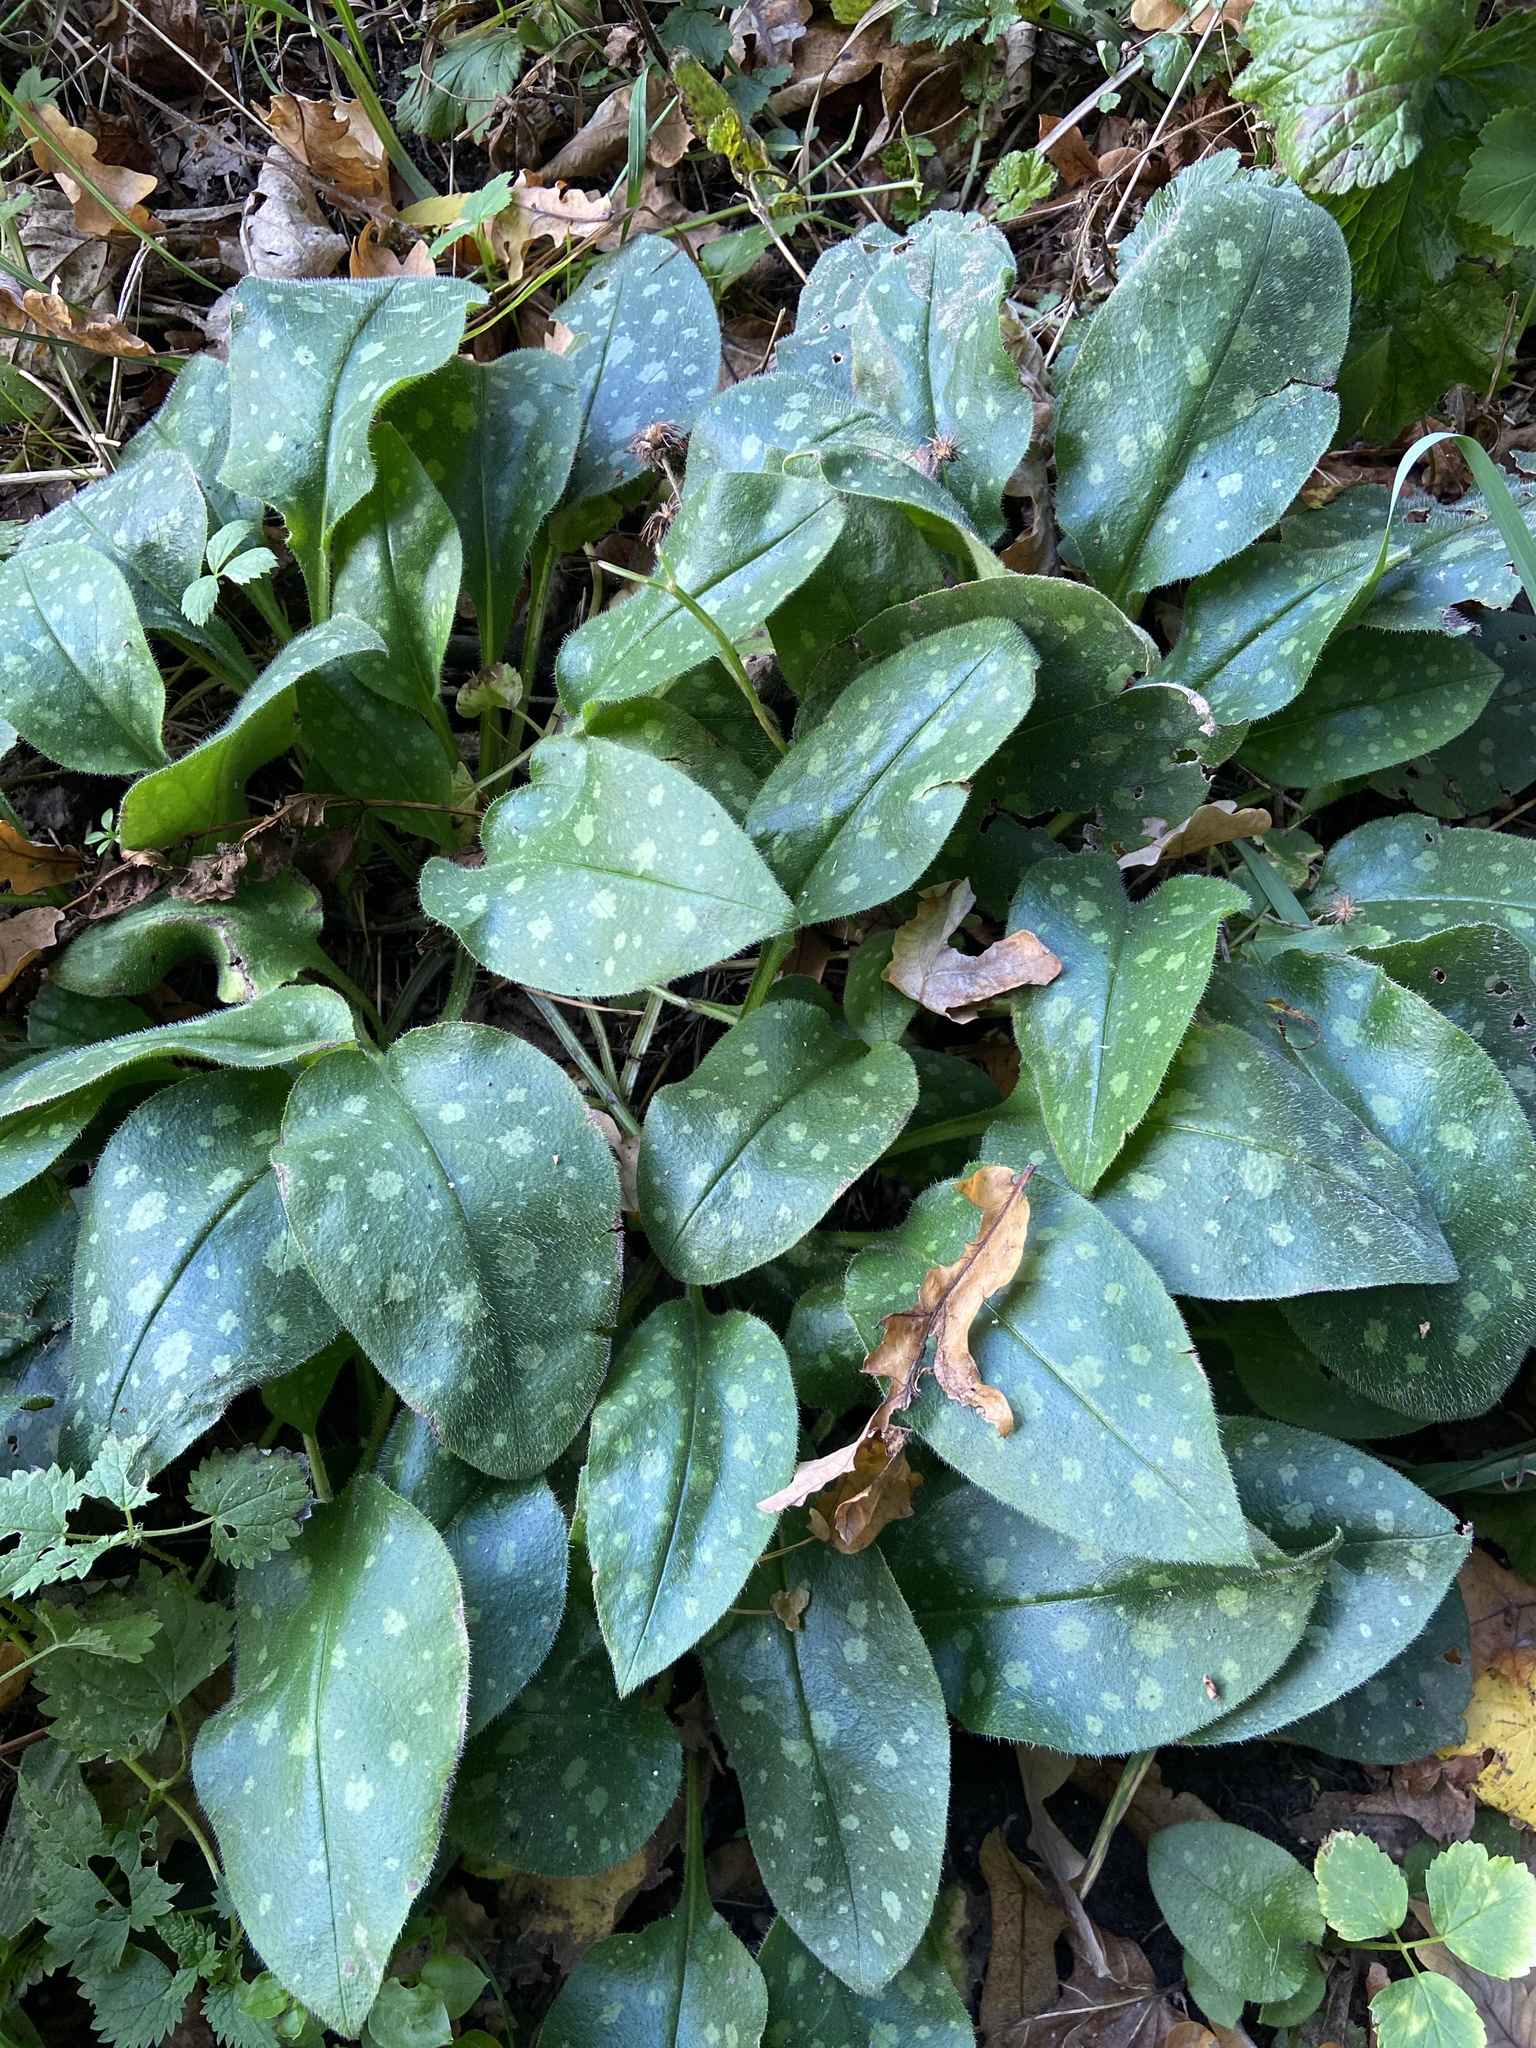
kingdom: Plantae
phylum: Tracheophyta
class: Magnoliopsida
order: Boraginales
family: Boraginaceae
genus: Pulmonaria
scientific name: Pulmonaria officinalis
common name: Lungwort
